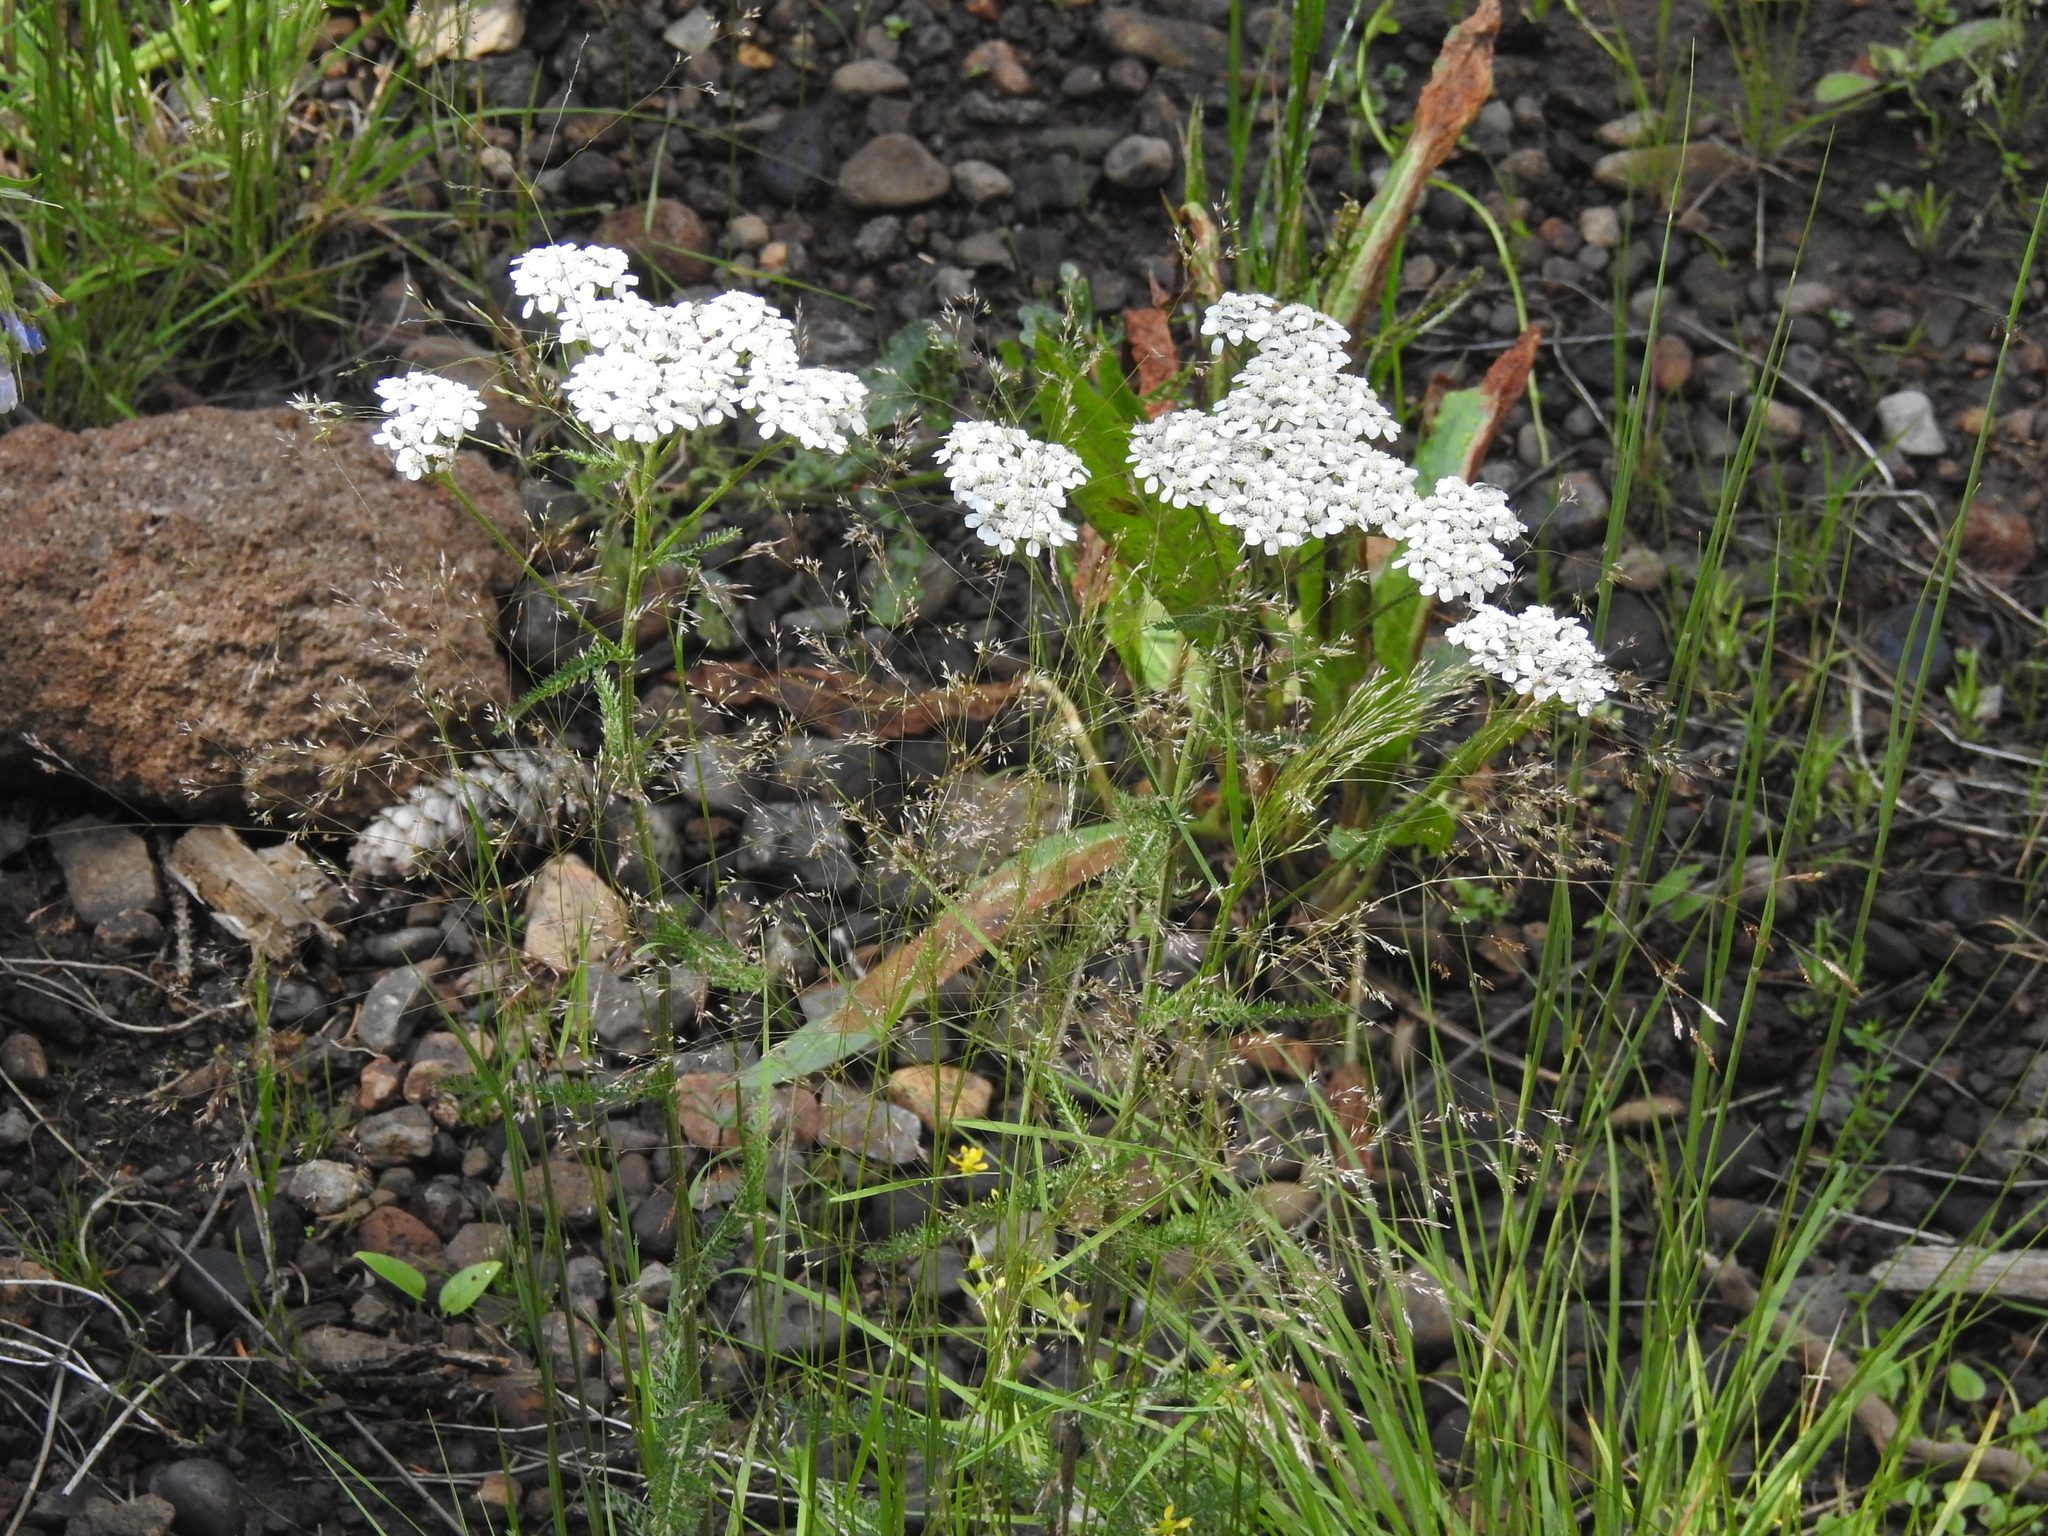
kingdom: Plantae
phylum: Tracheophyta
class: Magnoliopsida
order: Asterales
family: Asteraceae
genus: Achillea
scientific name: Achillea millefolium
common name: Yarrow
